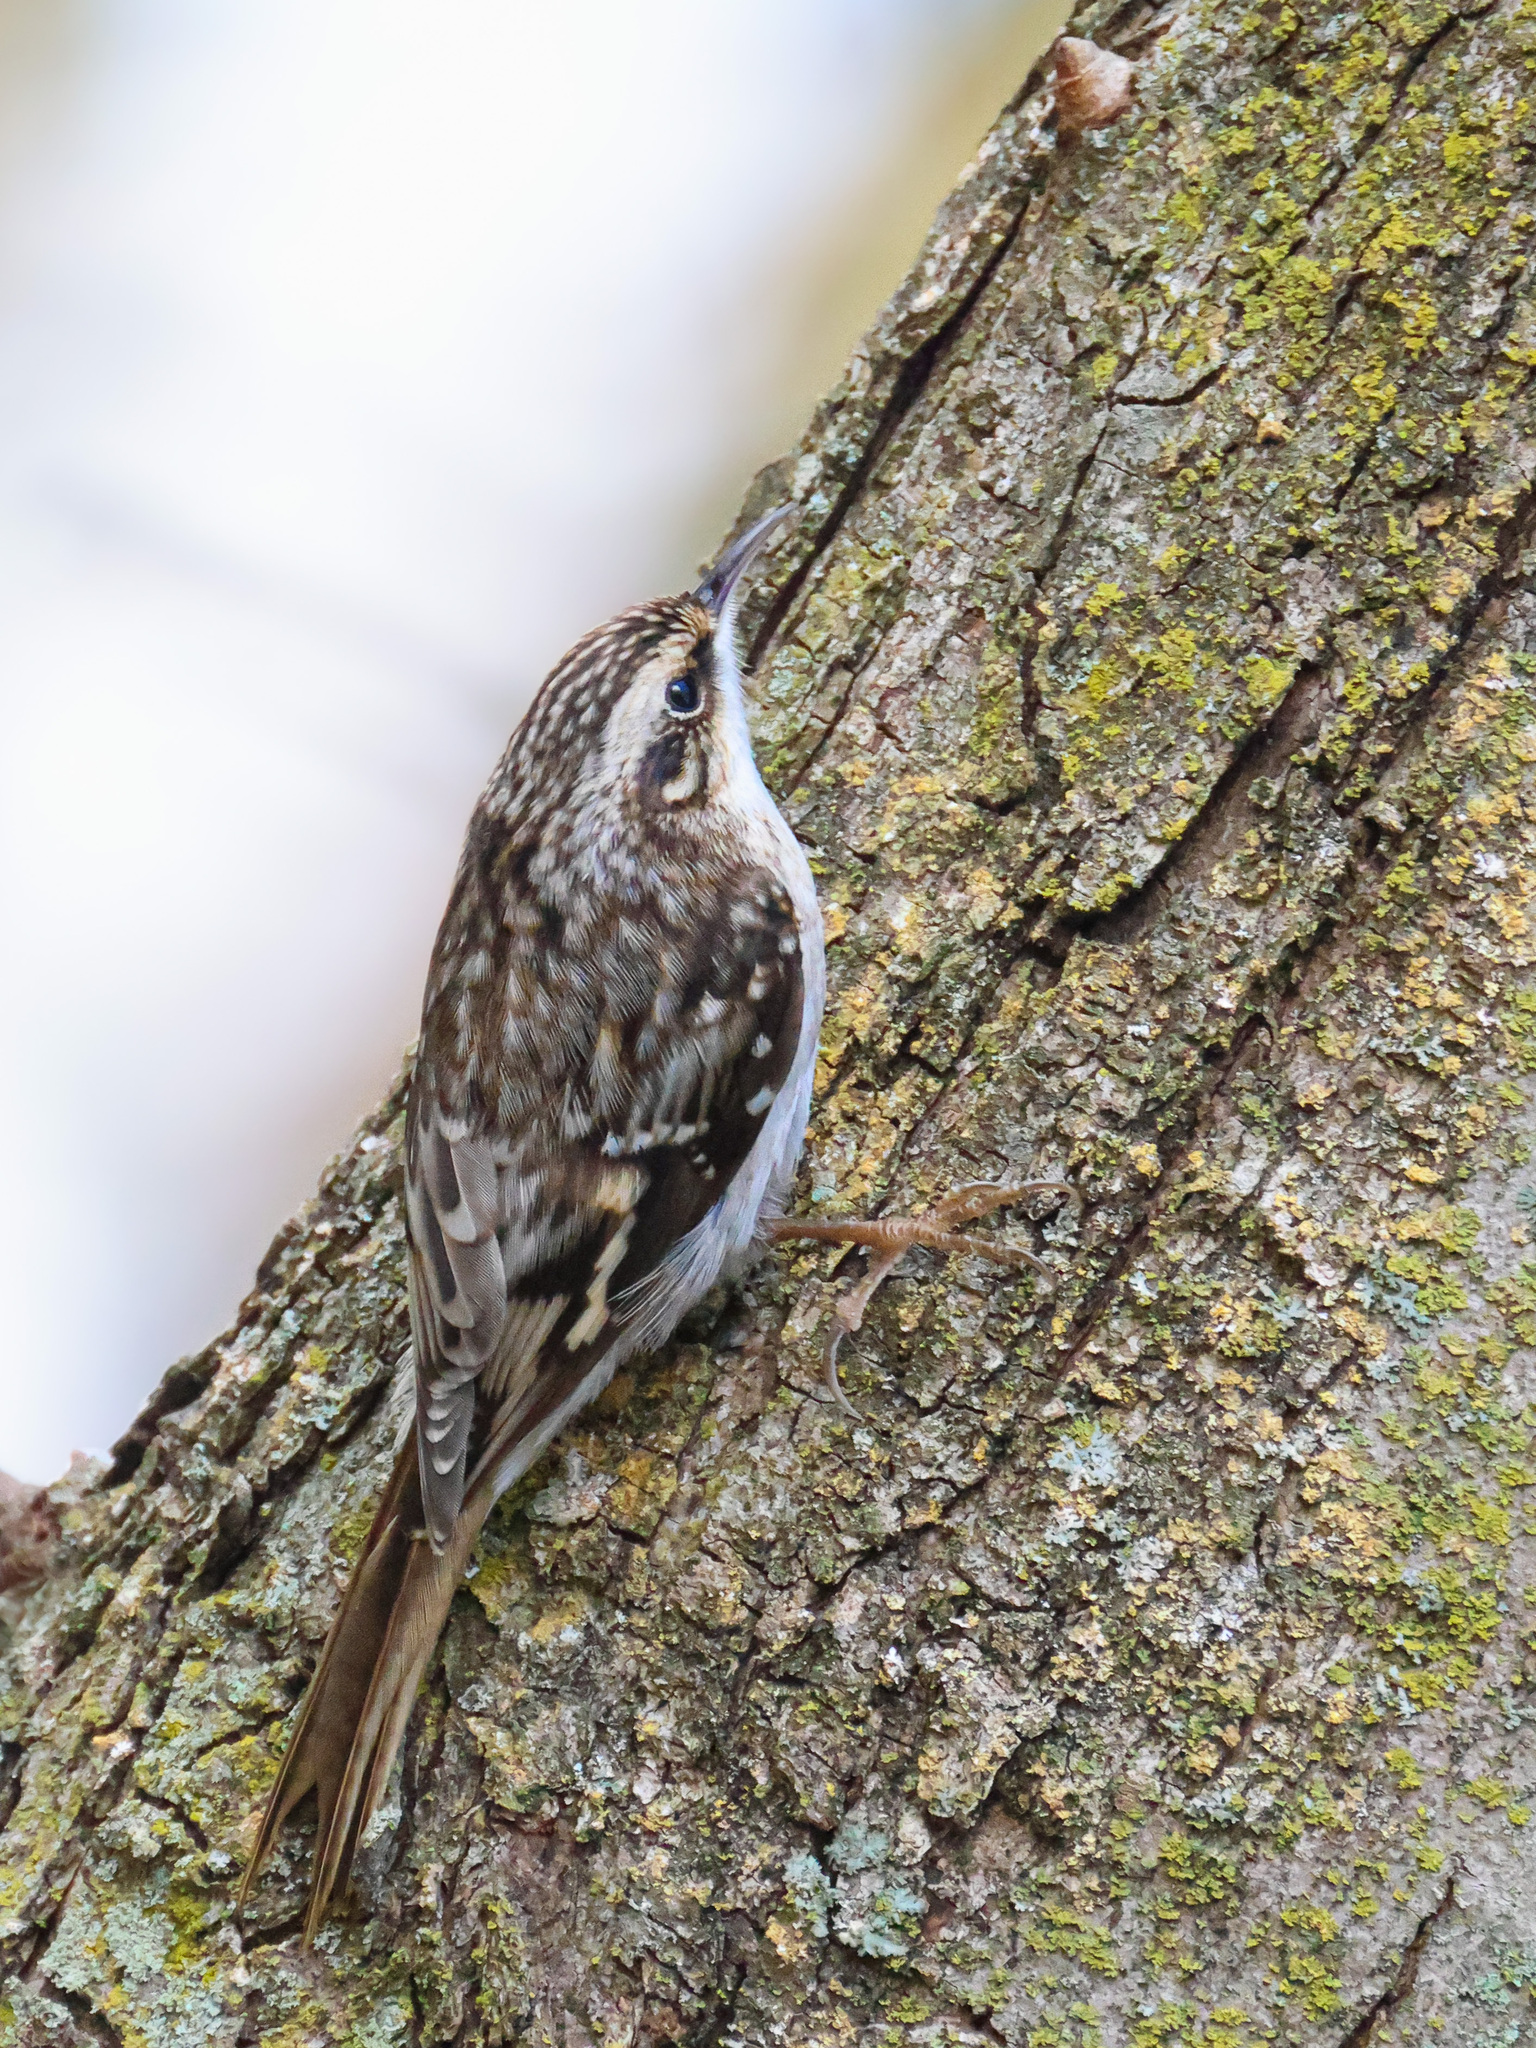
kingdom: Animalia
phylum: Chordata
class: Aves
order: Passeriformes
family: Certhiidae
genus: Certhia
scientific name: Certhia americana
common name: Brown creeper
